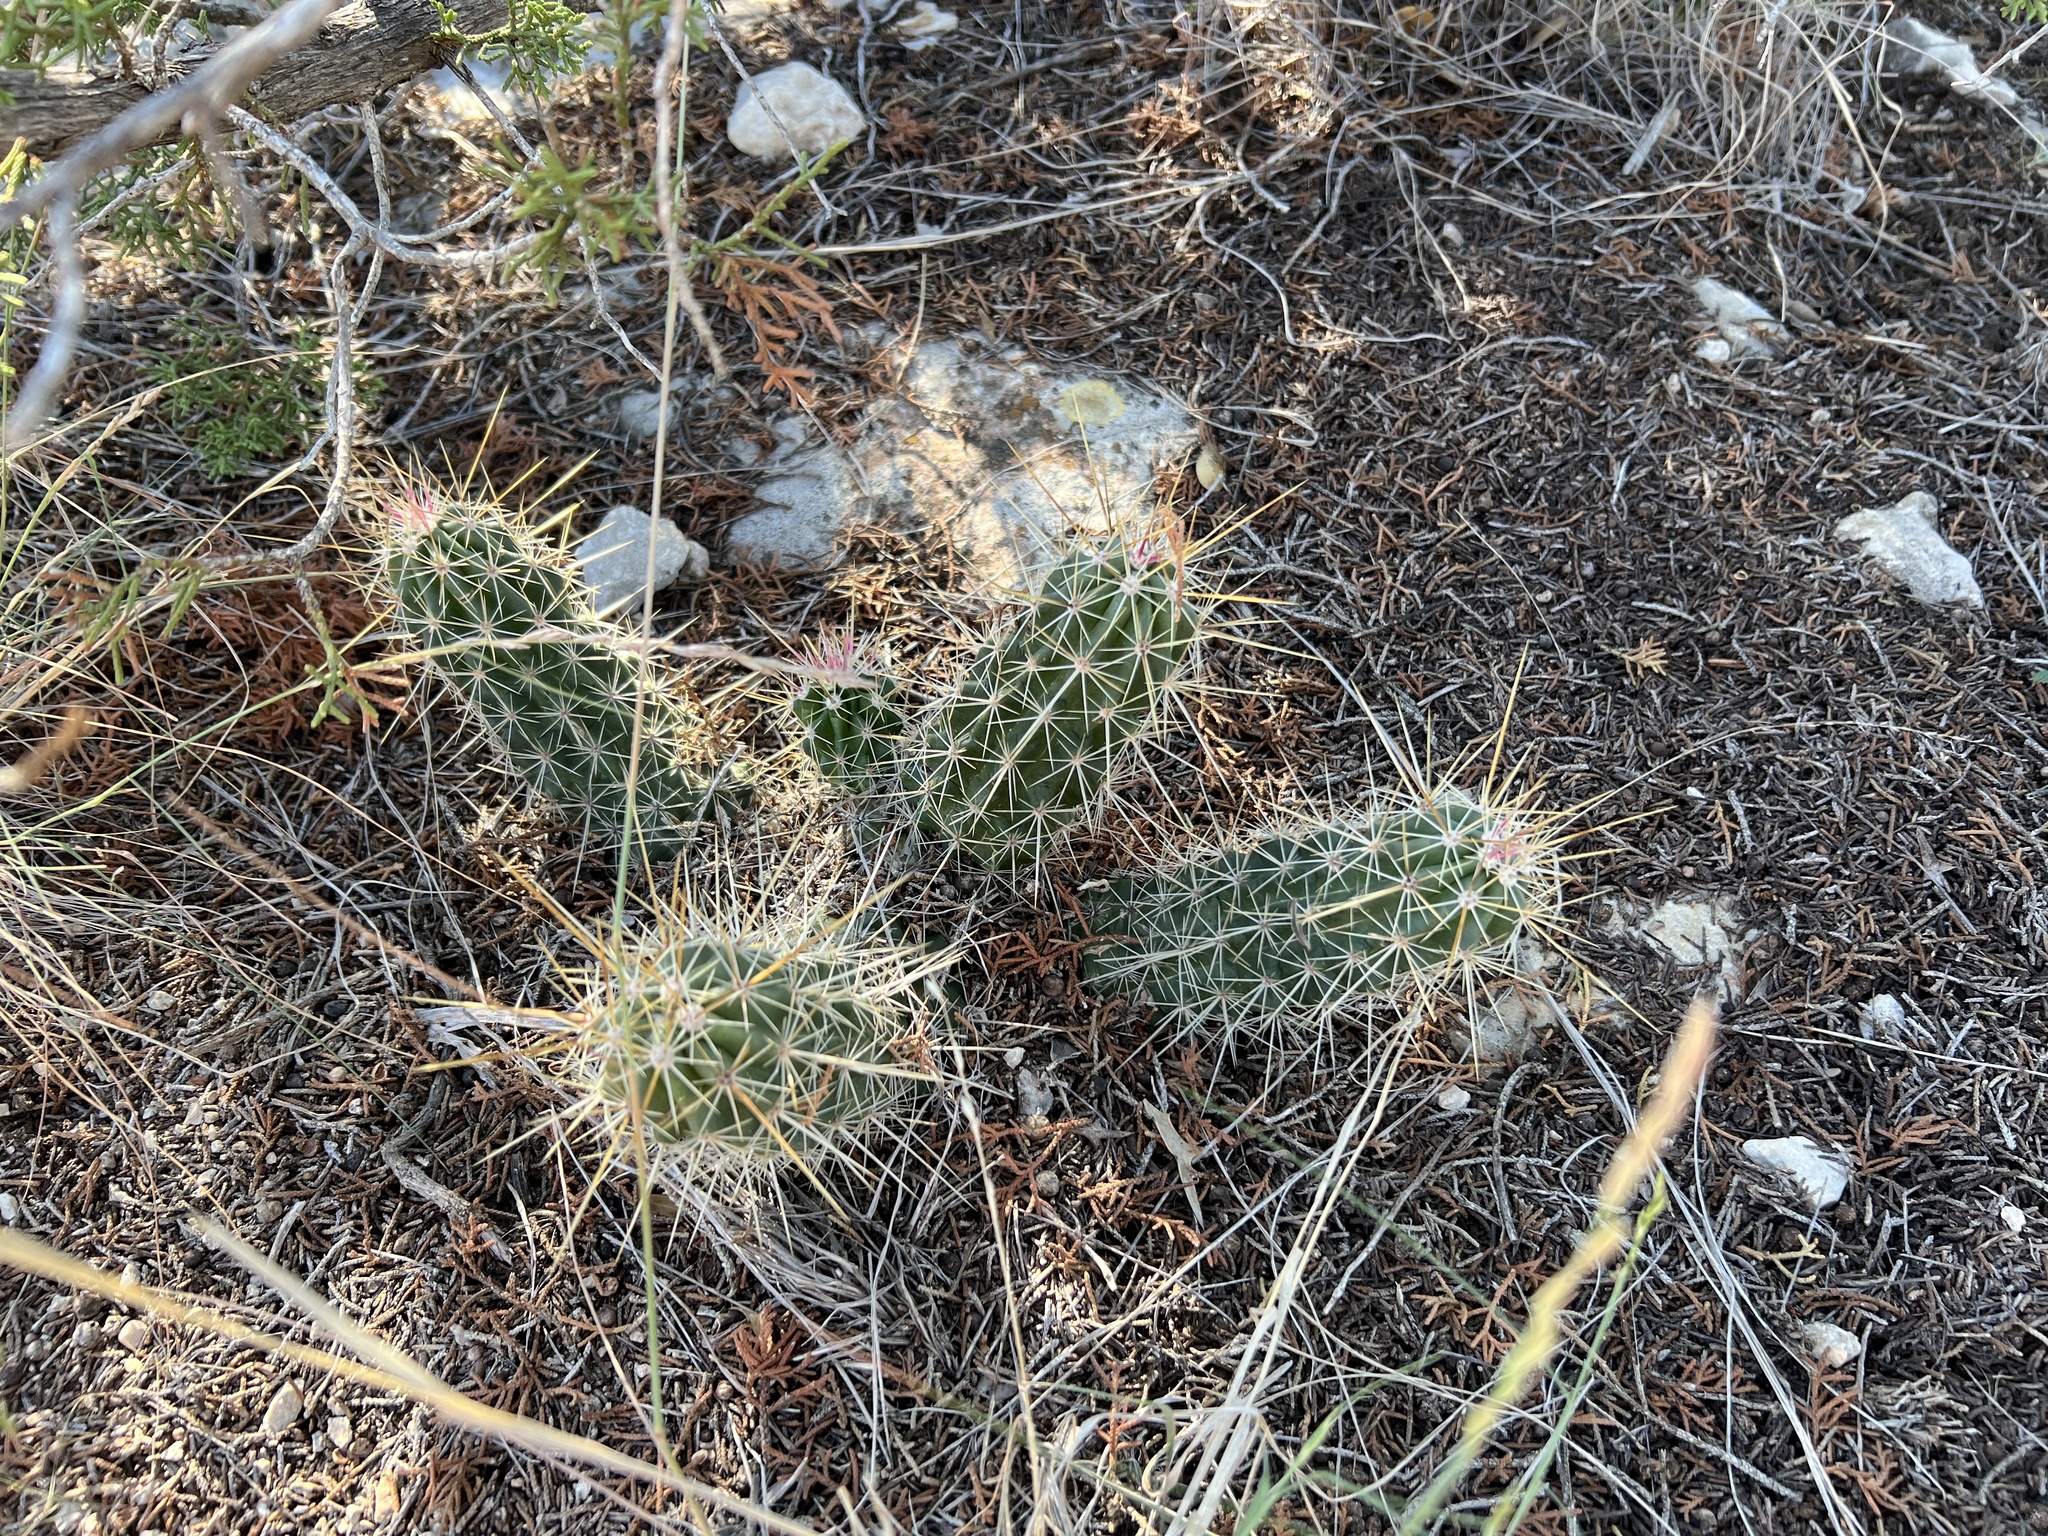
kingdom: Plantae
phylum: Tracheophyta
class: Magnoliopsida
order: Caryophyllales
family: Cactaceae
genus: Echinocereus
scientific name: Echinocereus enneacanthus
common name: Pitaya
